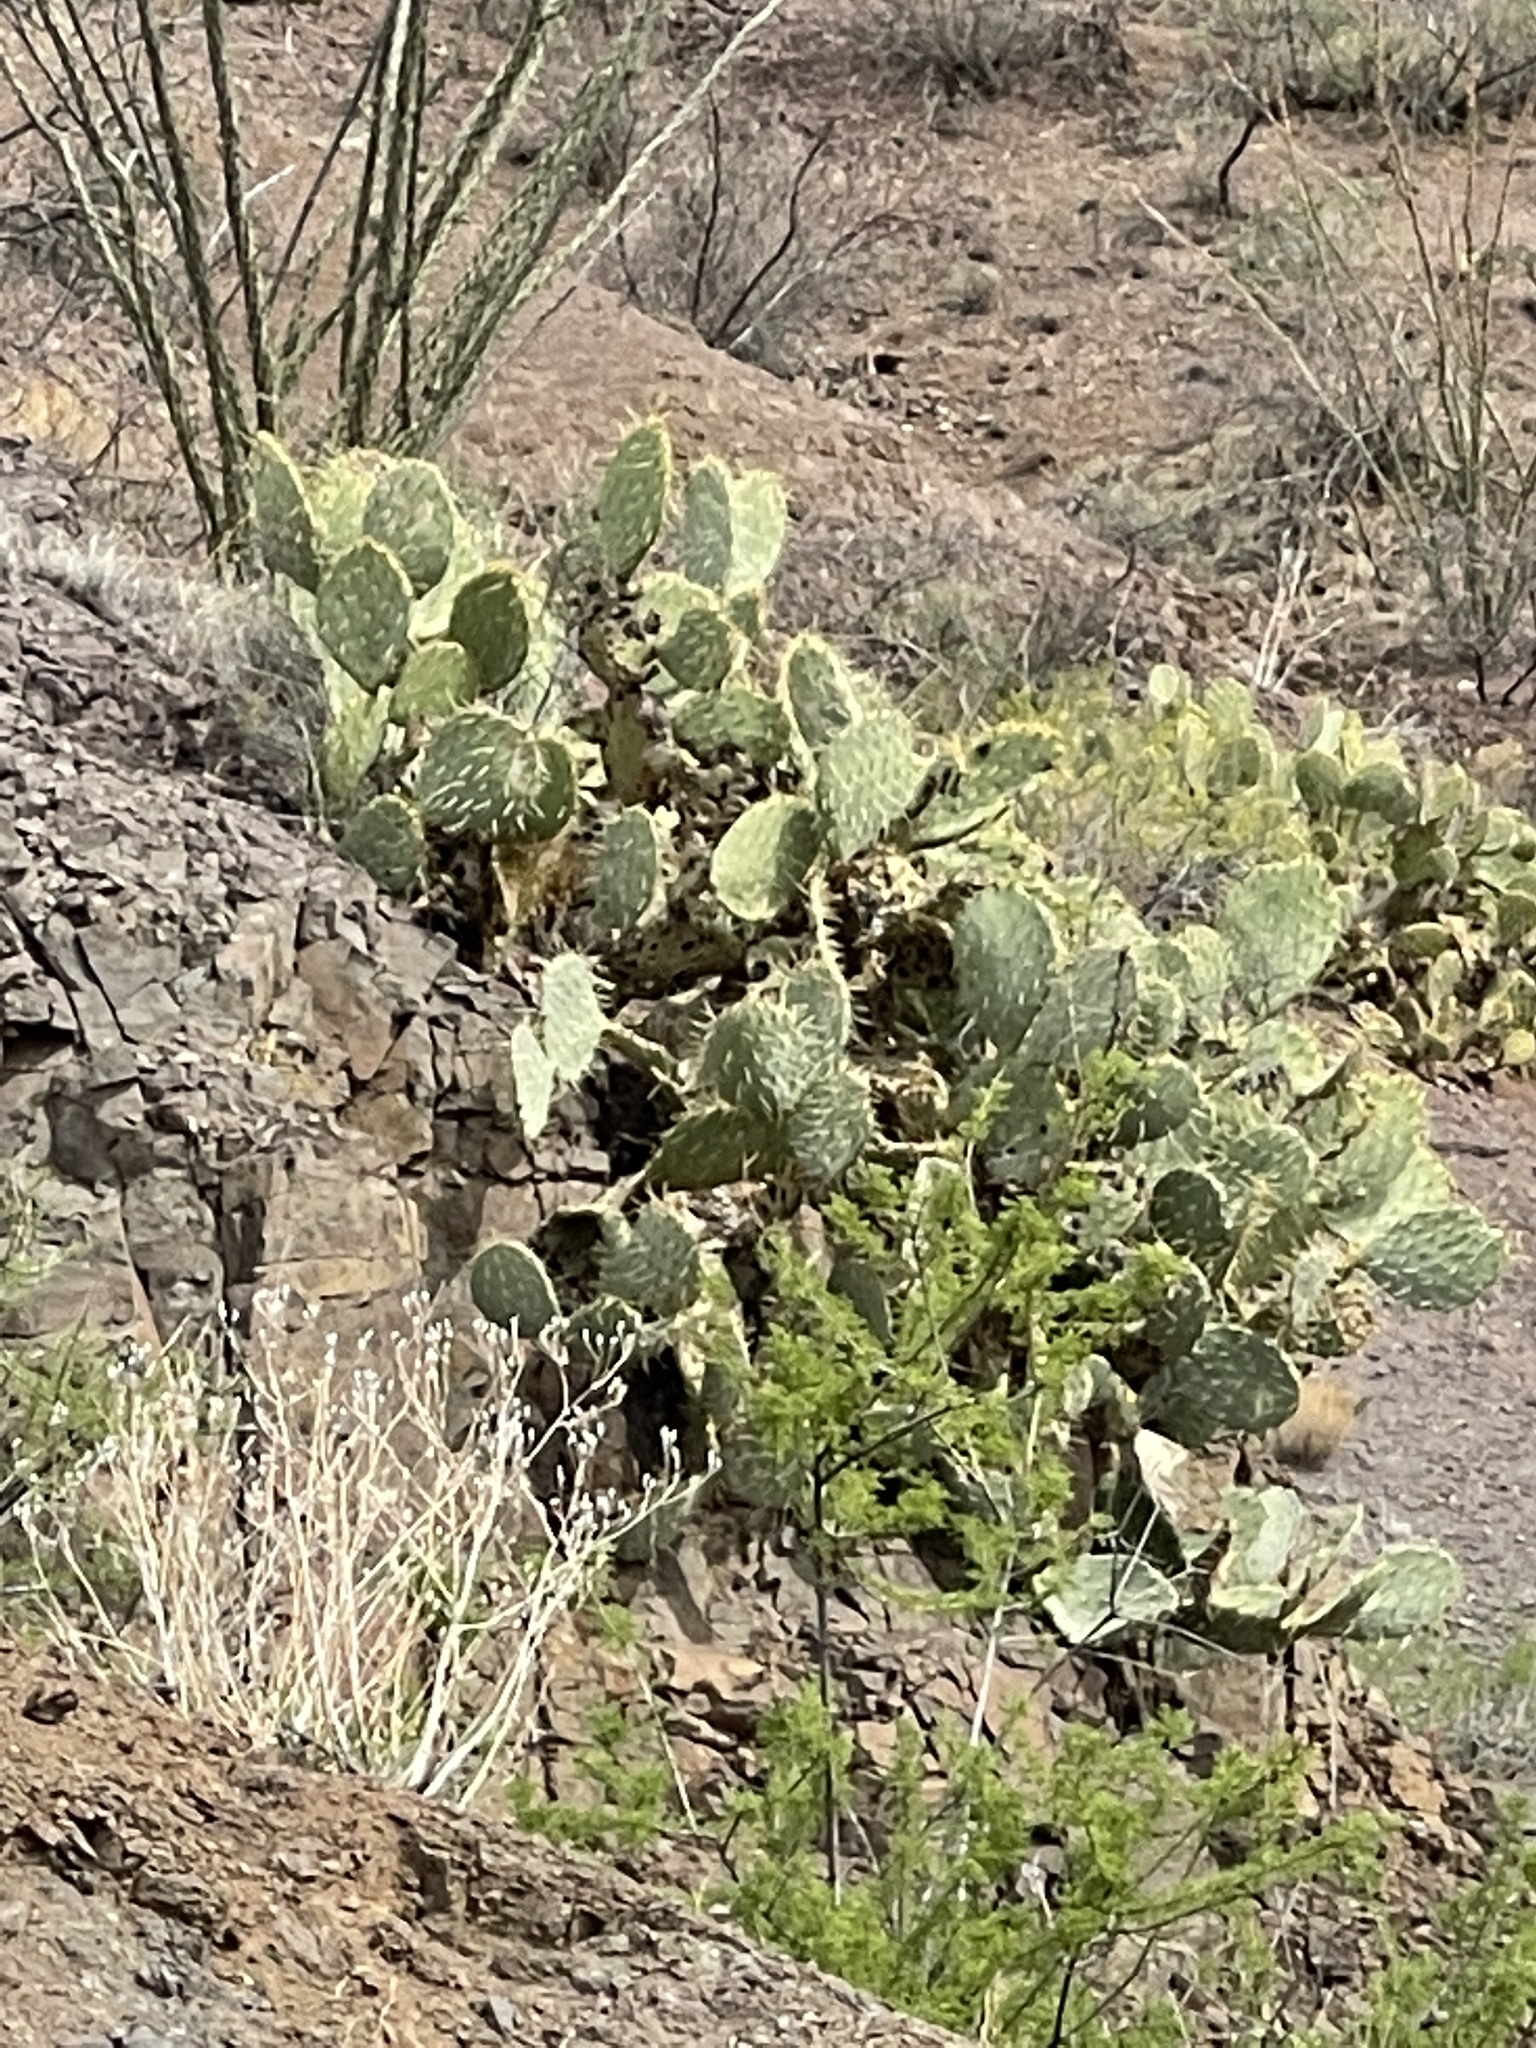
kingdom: Plantae
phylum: Tracheophyta
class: Magnoliopsida
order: Caryophyllales
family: Cactaceae
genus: Opuntia
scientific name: Opuntia engelmannii
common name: Cactus-apple
